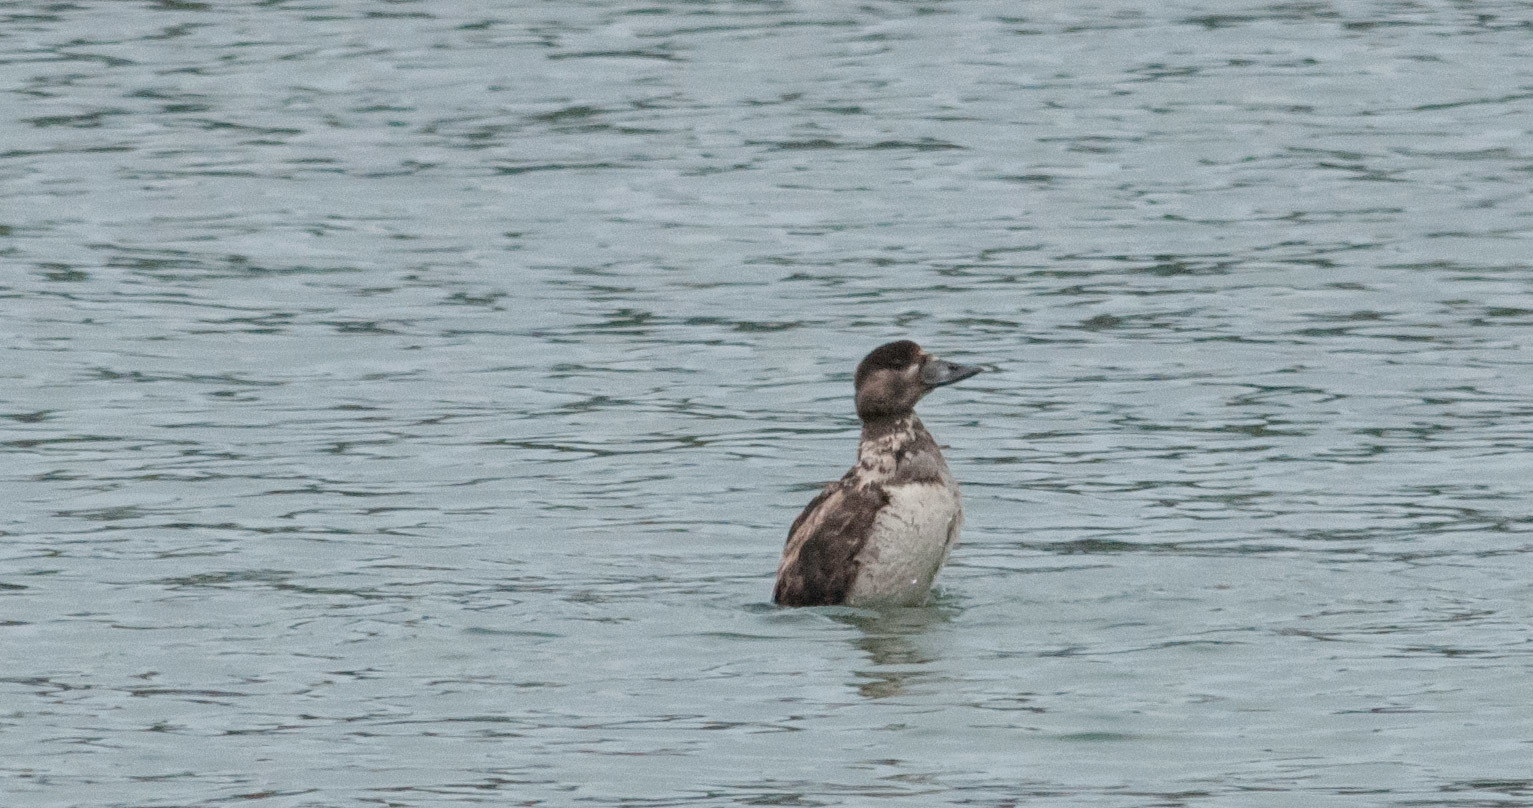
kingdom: Animalia
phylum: Chordata
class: Aves
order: Anseriformes
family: Anatidae
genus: Melanitta
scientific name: Melanitta perspicillata
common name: Surf scoter
